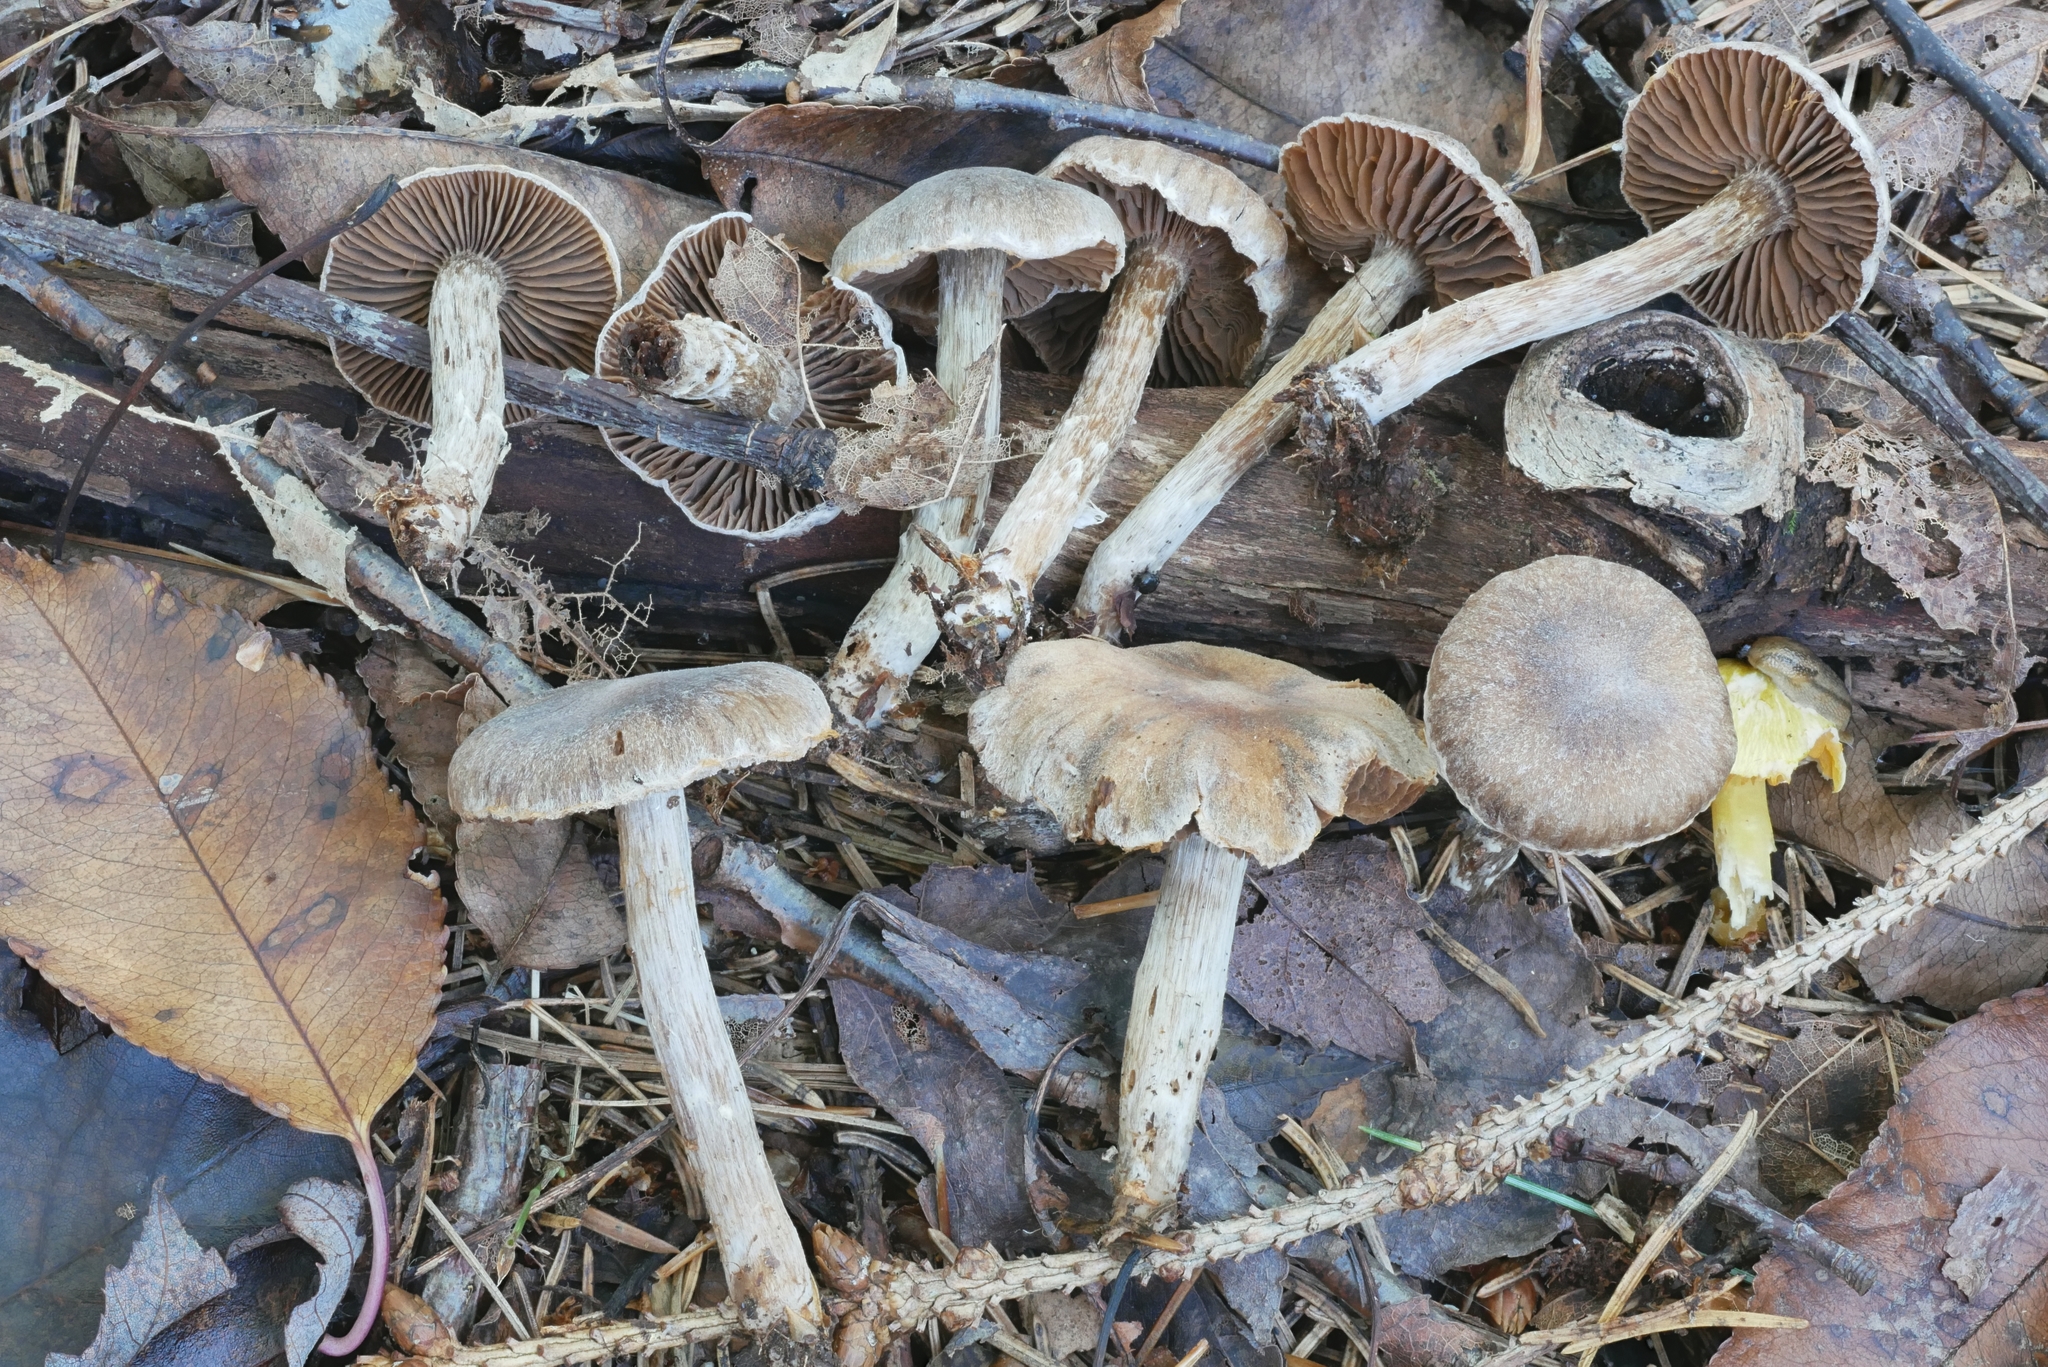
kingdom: Fungi
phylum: Basidiomycota
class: Agaricomycetes
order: Agaricales
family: Cortinariaceae
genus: Cortinarius
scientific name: Cortinarius flabellus
